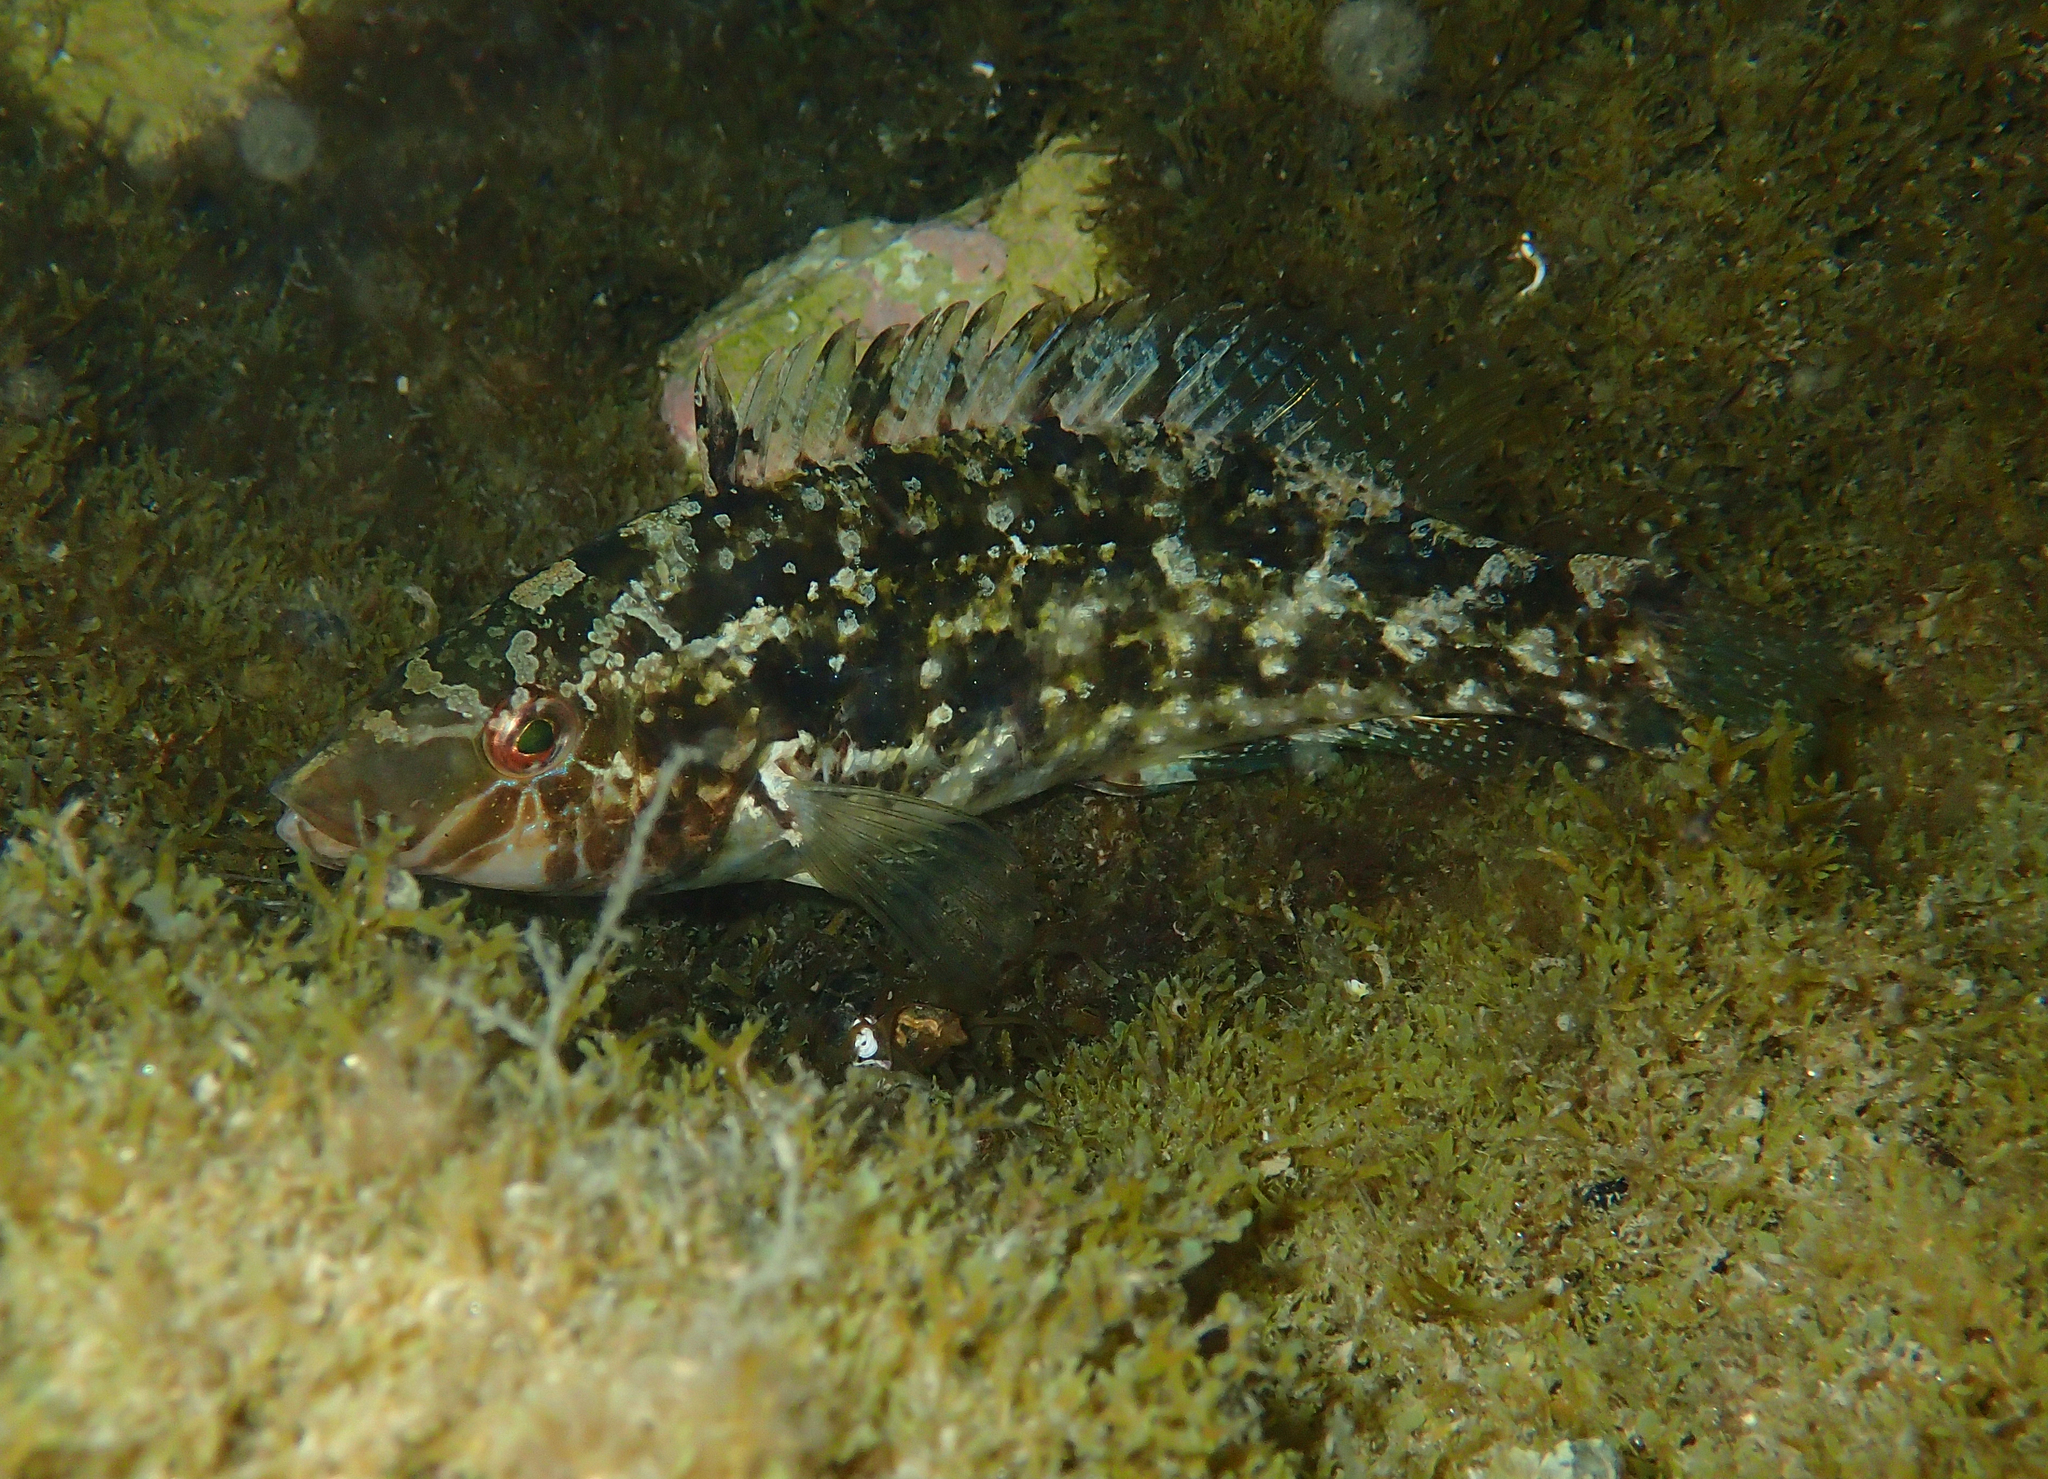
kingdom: Animalia
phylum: Chordata
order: Perciformes
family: Labridae
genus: Symphodus
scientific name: Symphodus cinereus
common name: Grey wrasse
